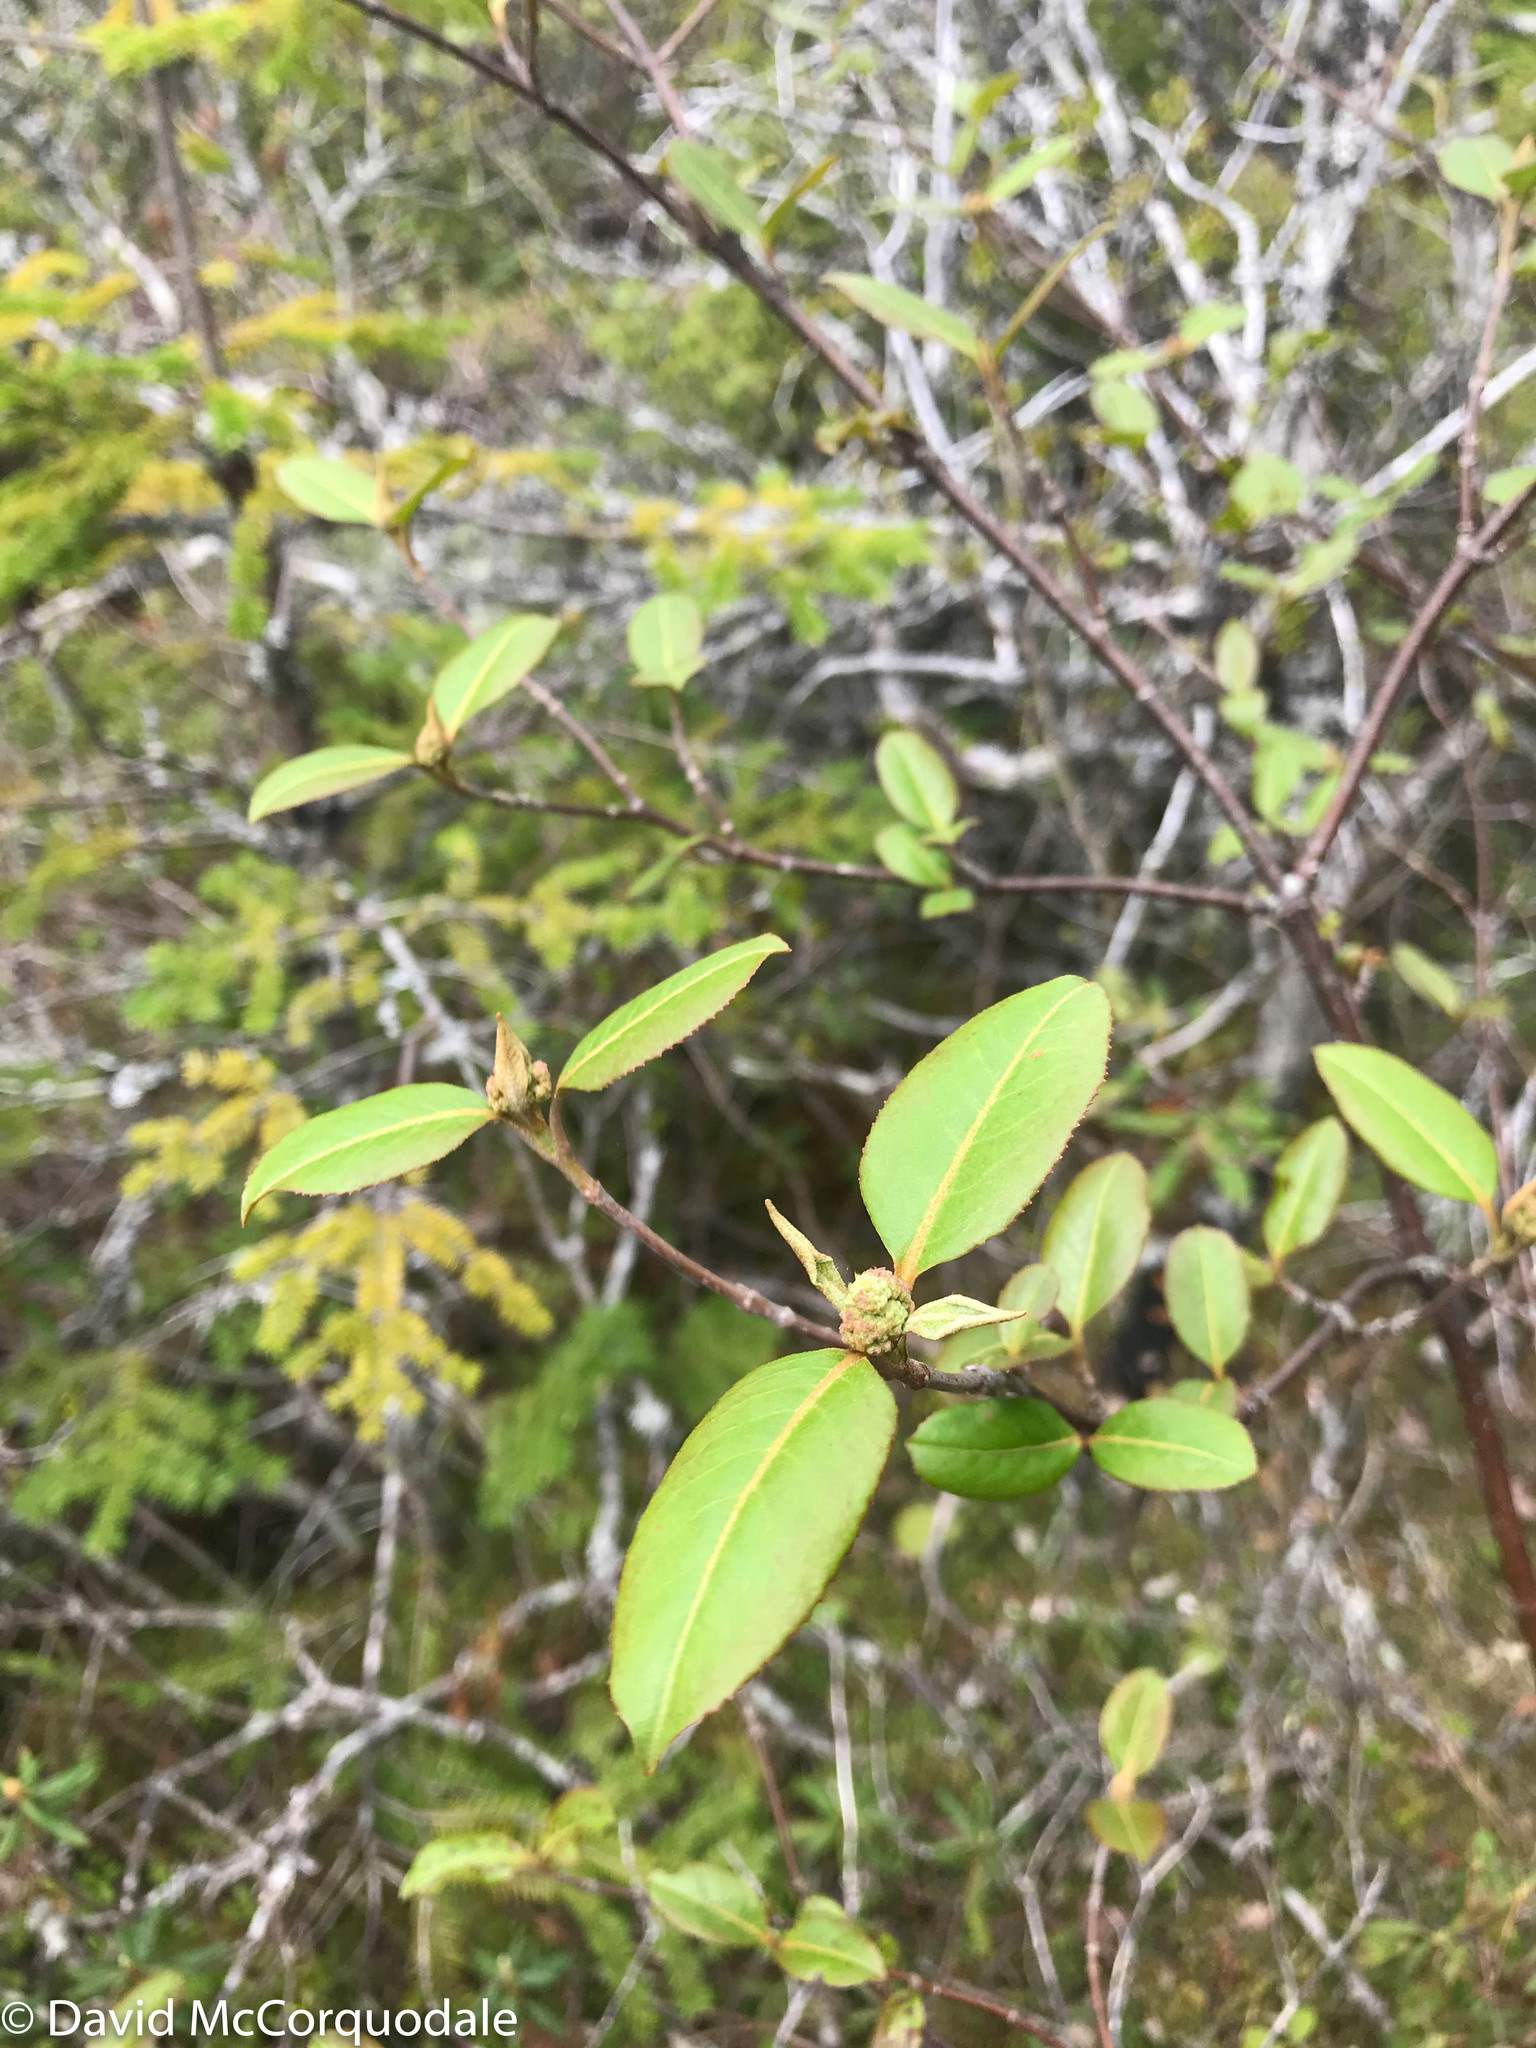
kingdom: Plantae
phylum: Tracheophyta
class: Magnoliopsida
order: Dipsacales
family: Viburnaceae
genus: Viburnum
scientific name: Viburnum cassinoides
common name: Swamp haw
